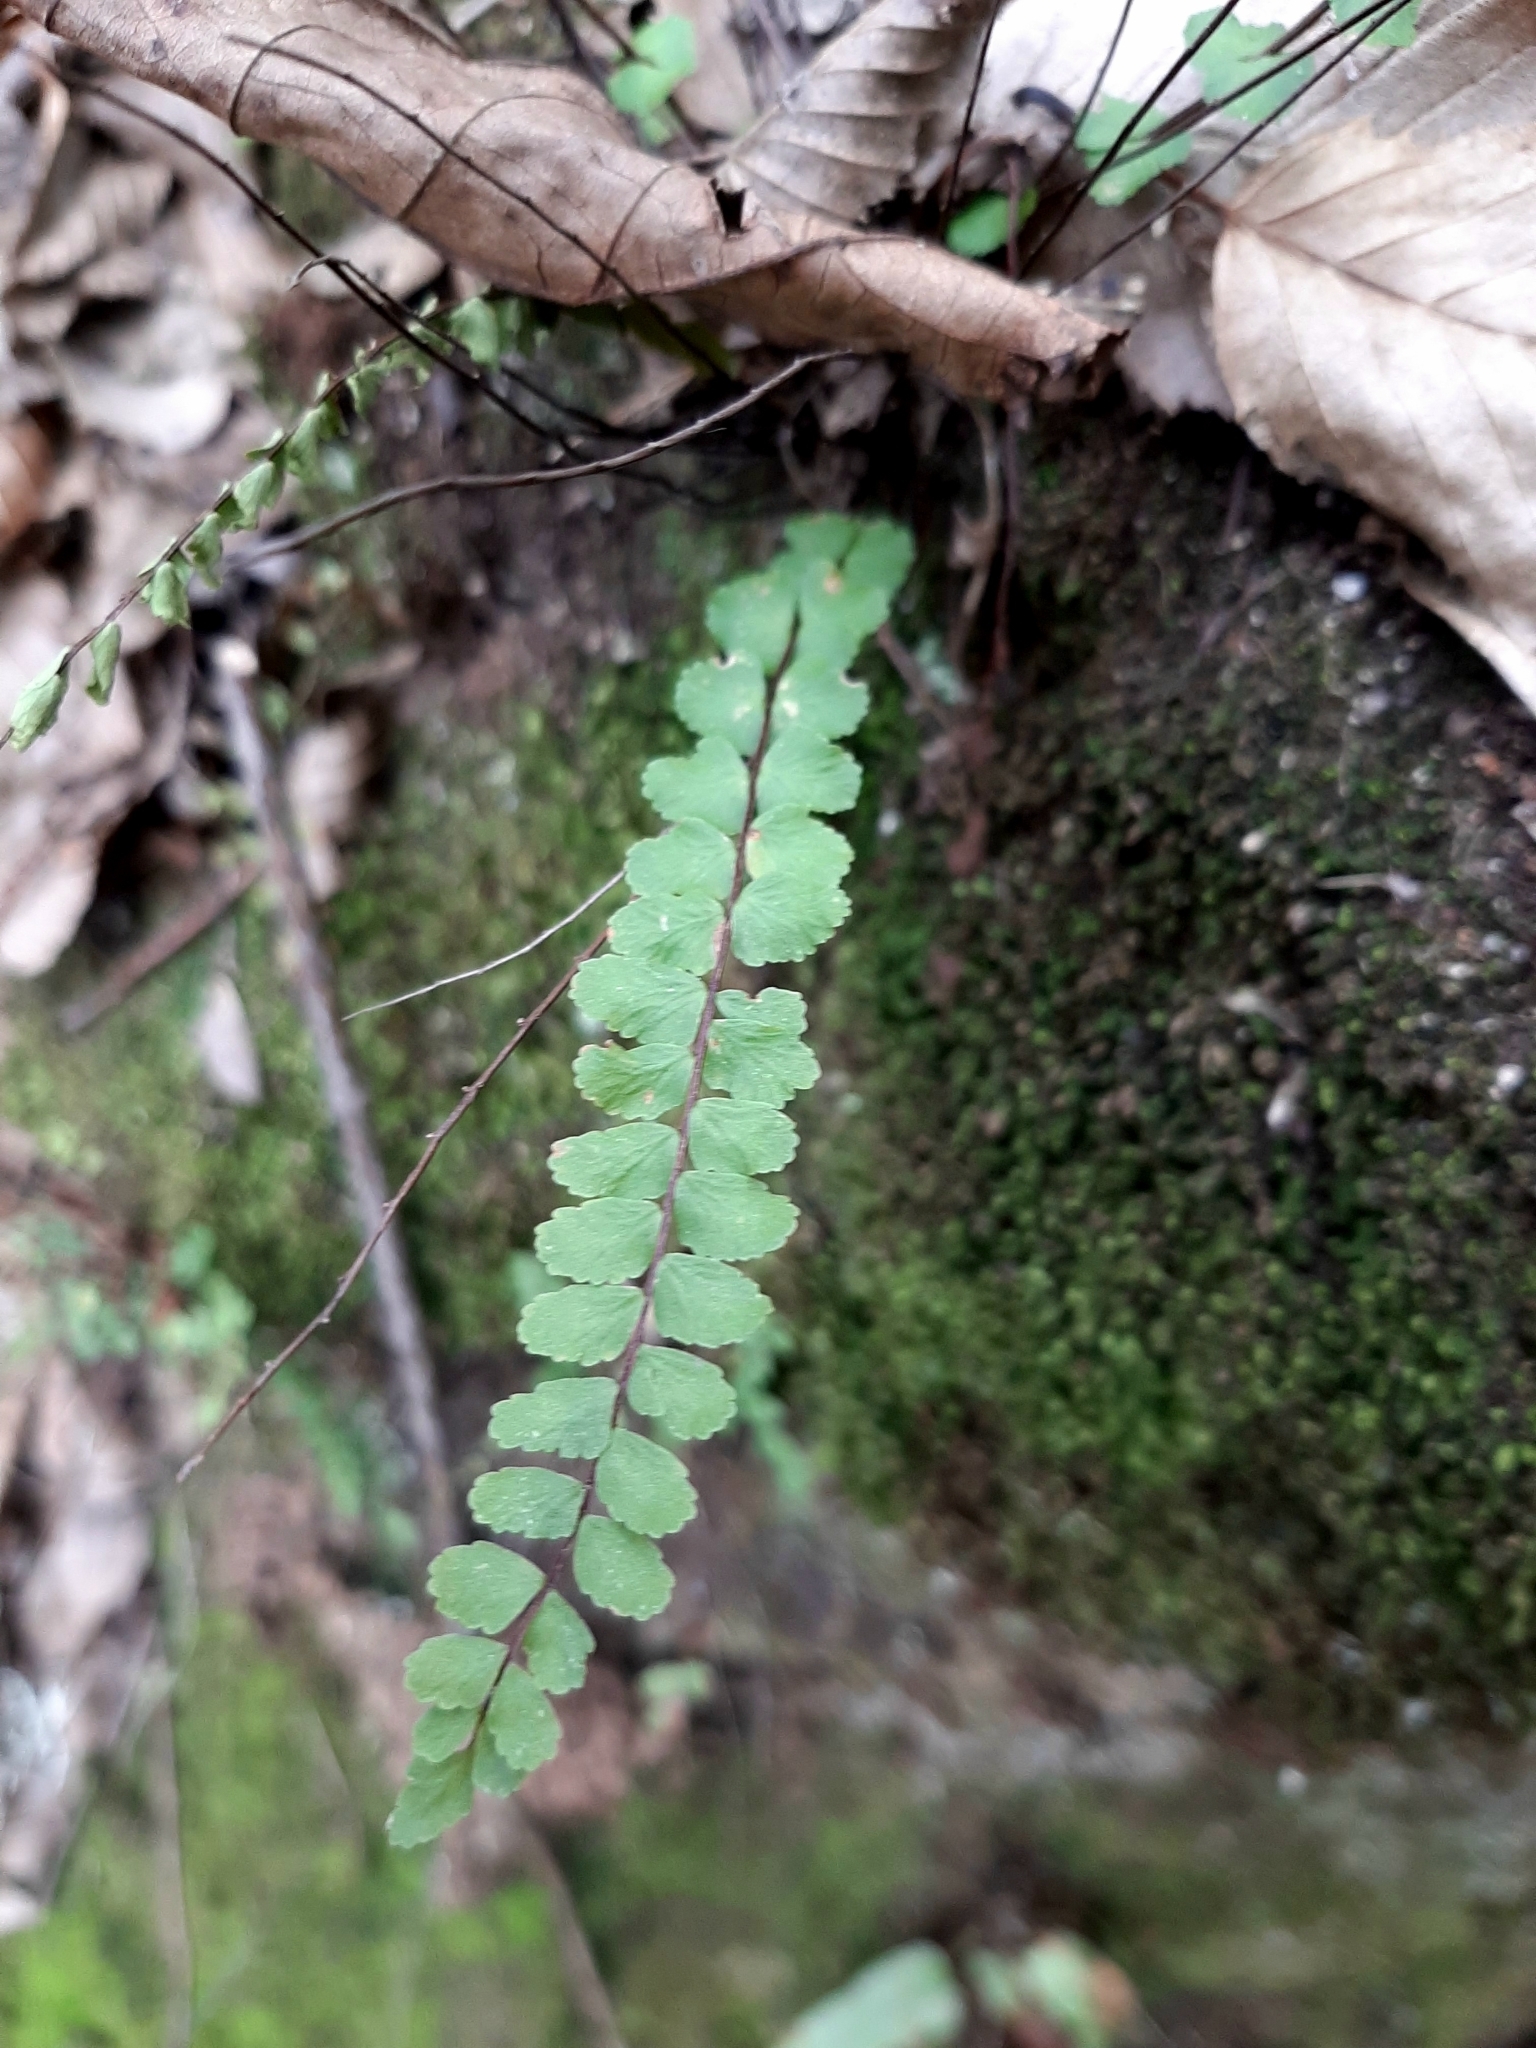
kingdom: Plantae
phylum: Tracheophyta
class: Polypodiopsida
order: Polypodiales
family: Aspleniaceae
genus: Asplenium
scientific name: Asplenium trichomanes
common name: Maidenhair spleenwort
